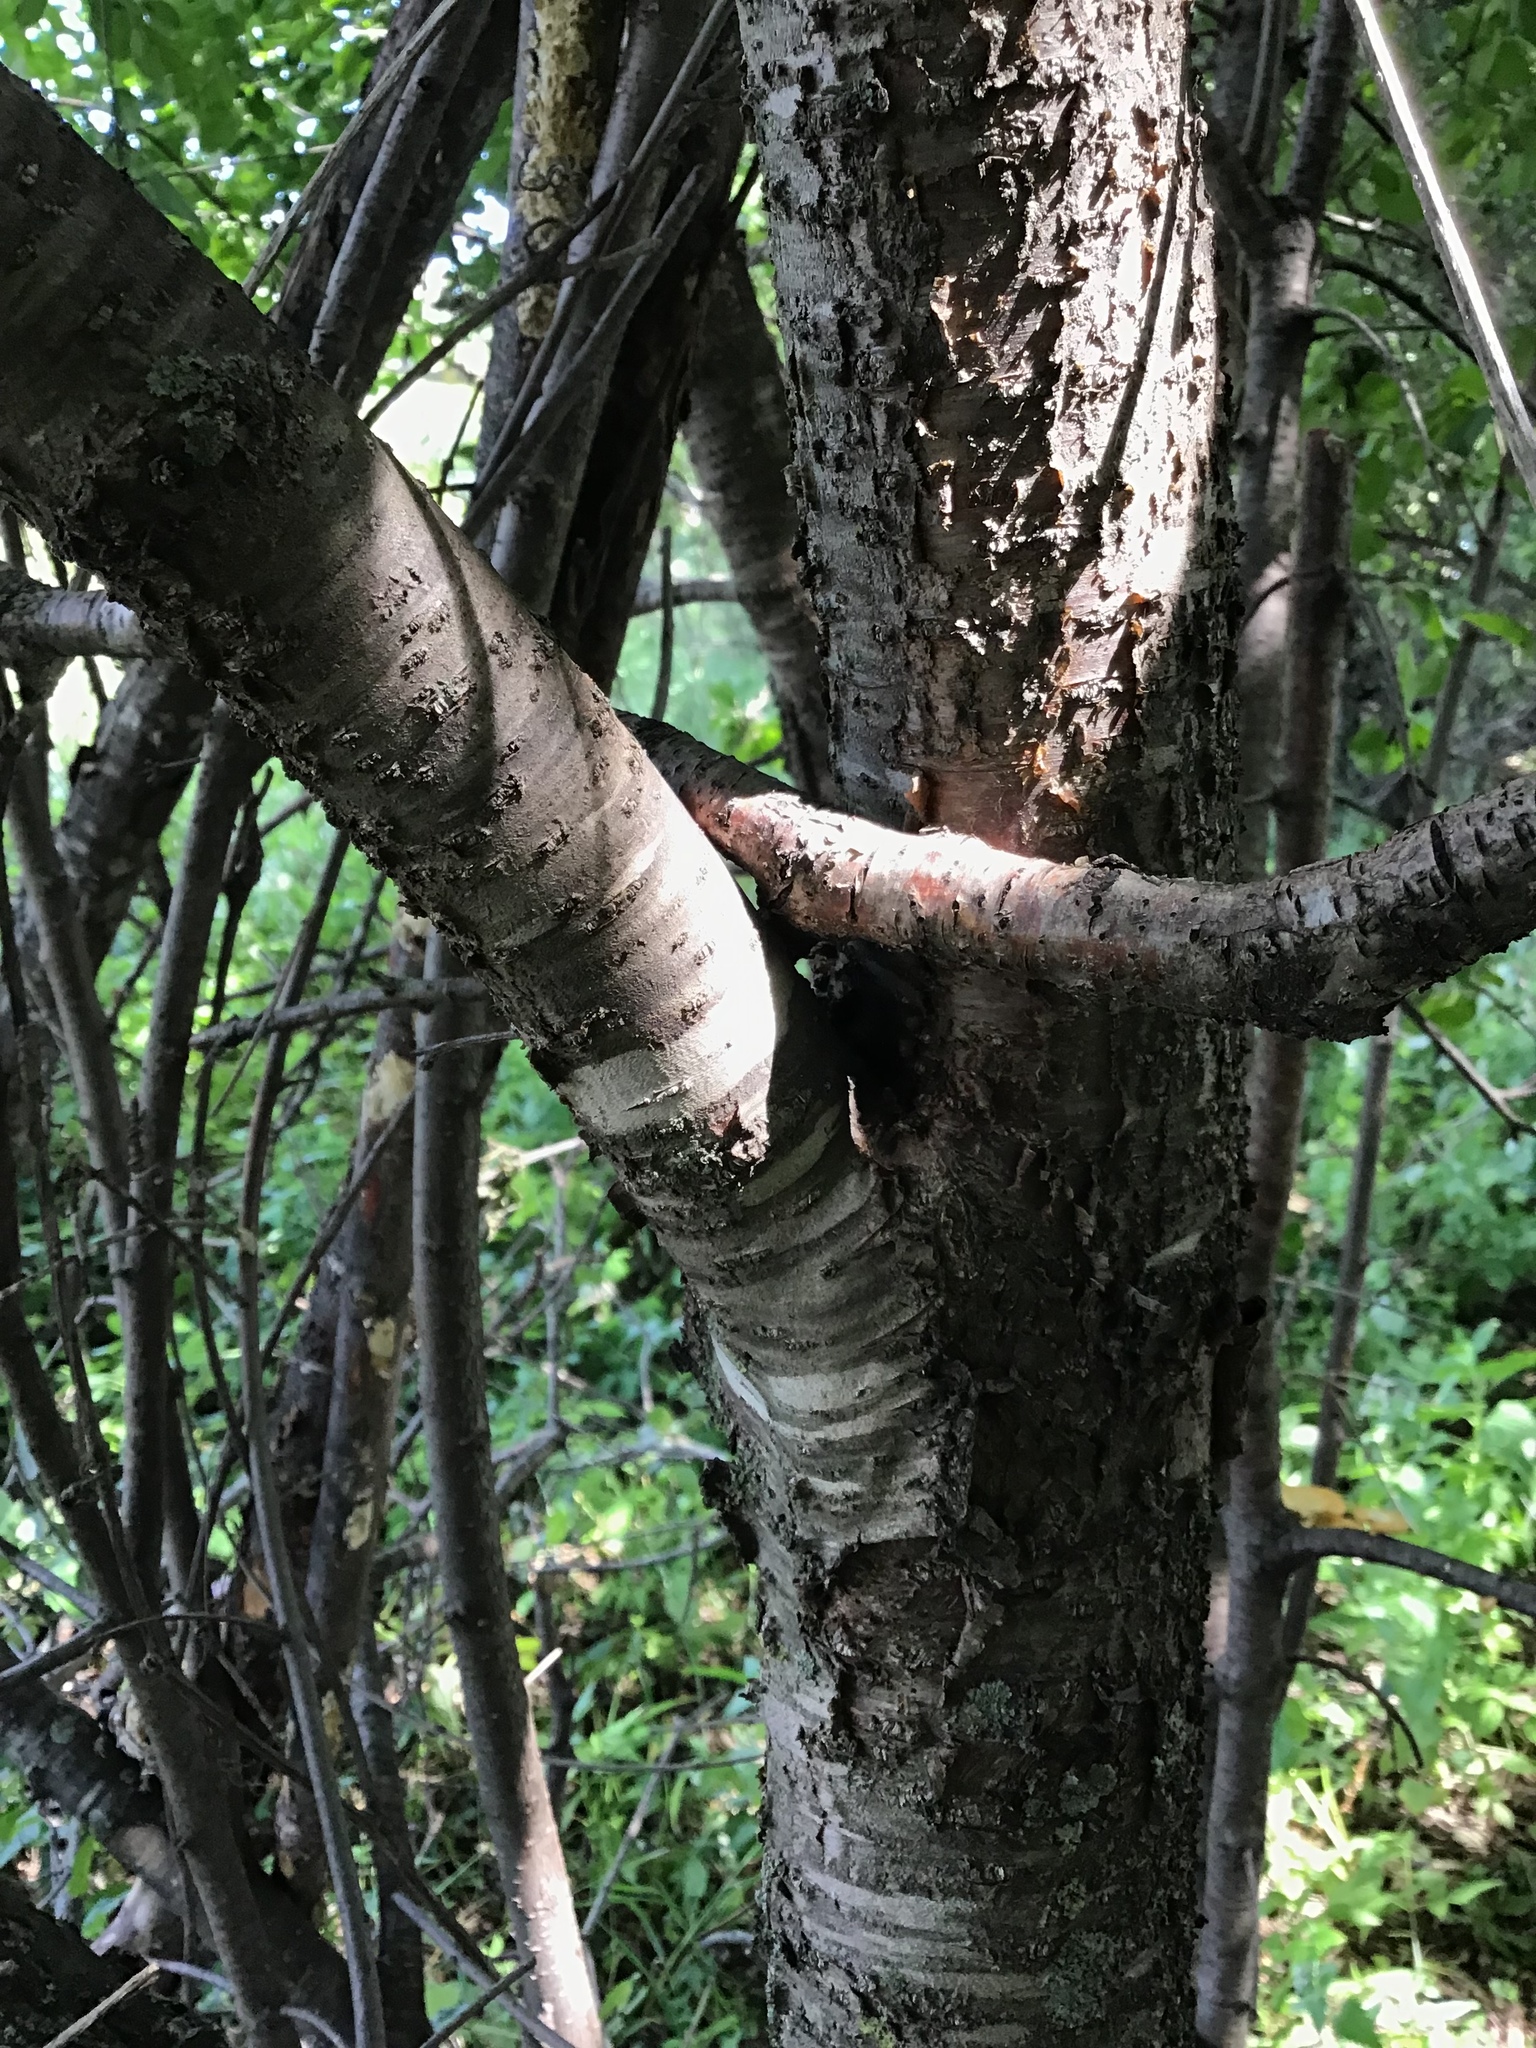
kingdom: Plantae
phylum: Tracheophyta
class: Magnoliopsida
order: Rosales
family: Rhamnaceae
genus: Rhamnus
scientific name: Rhamnus cathartica
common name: Common buckthorn
